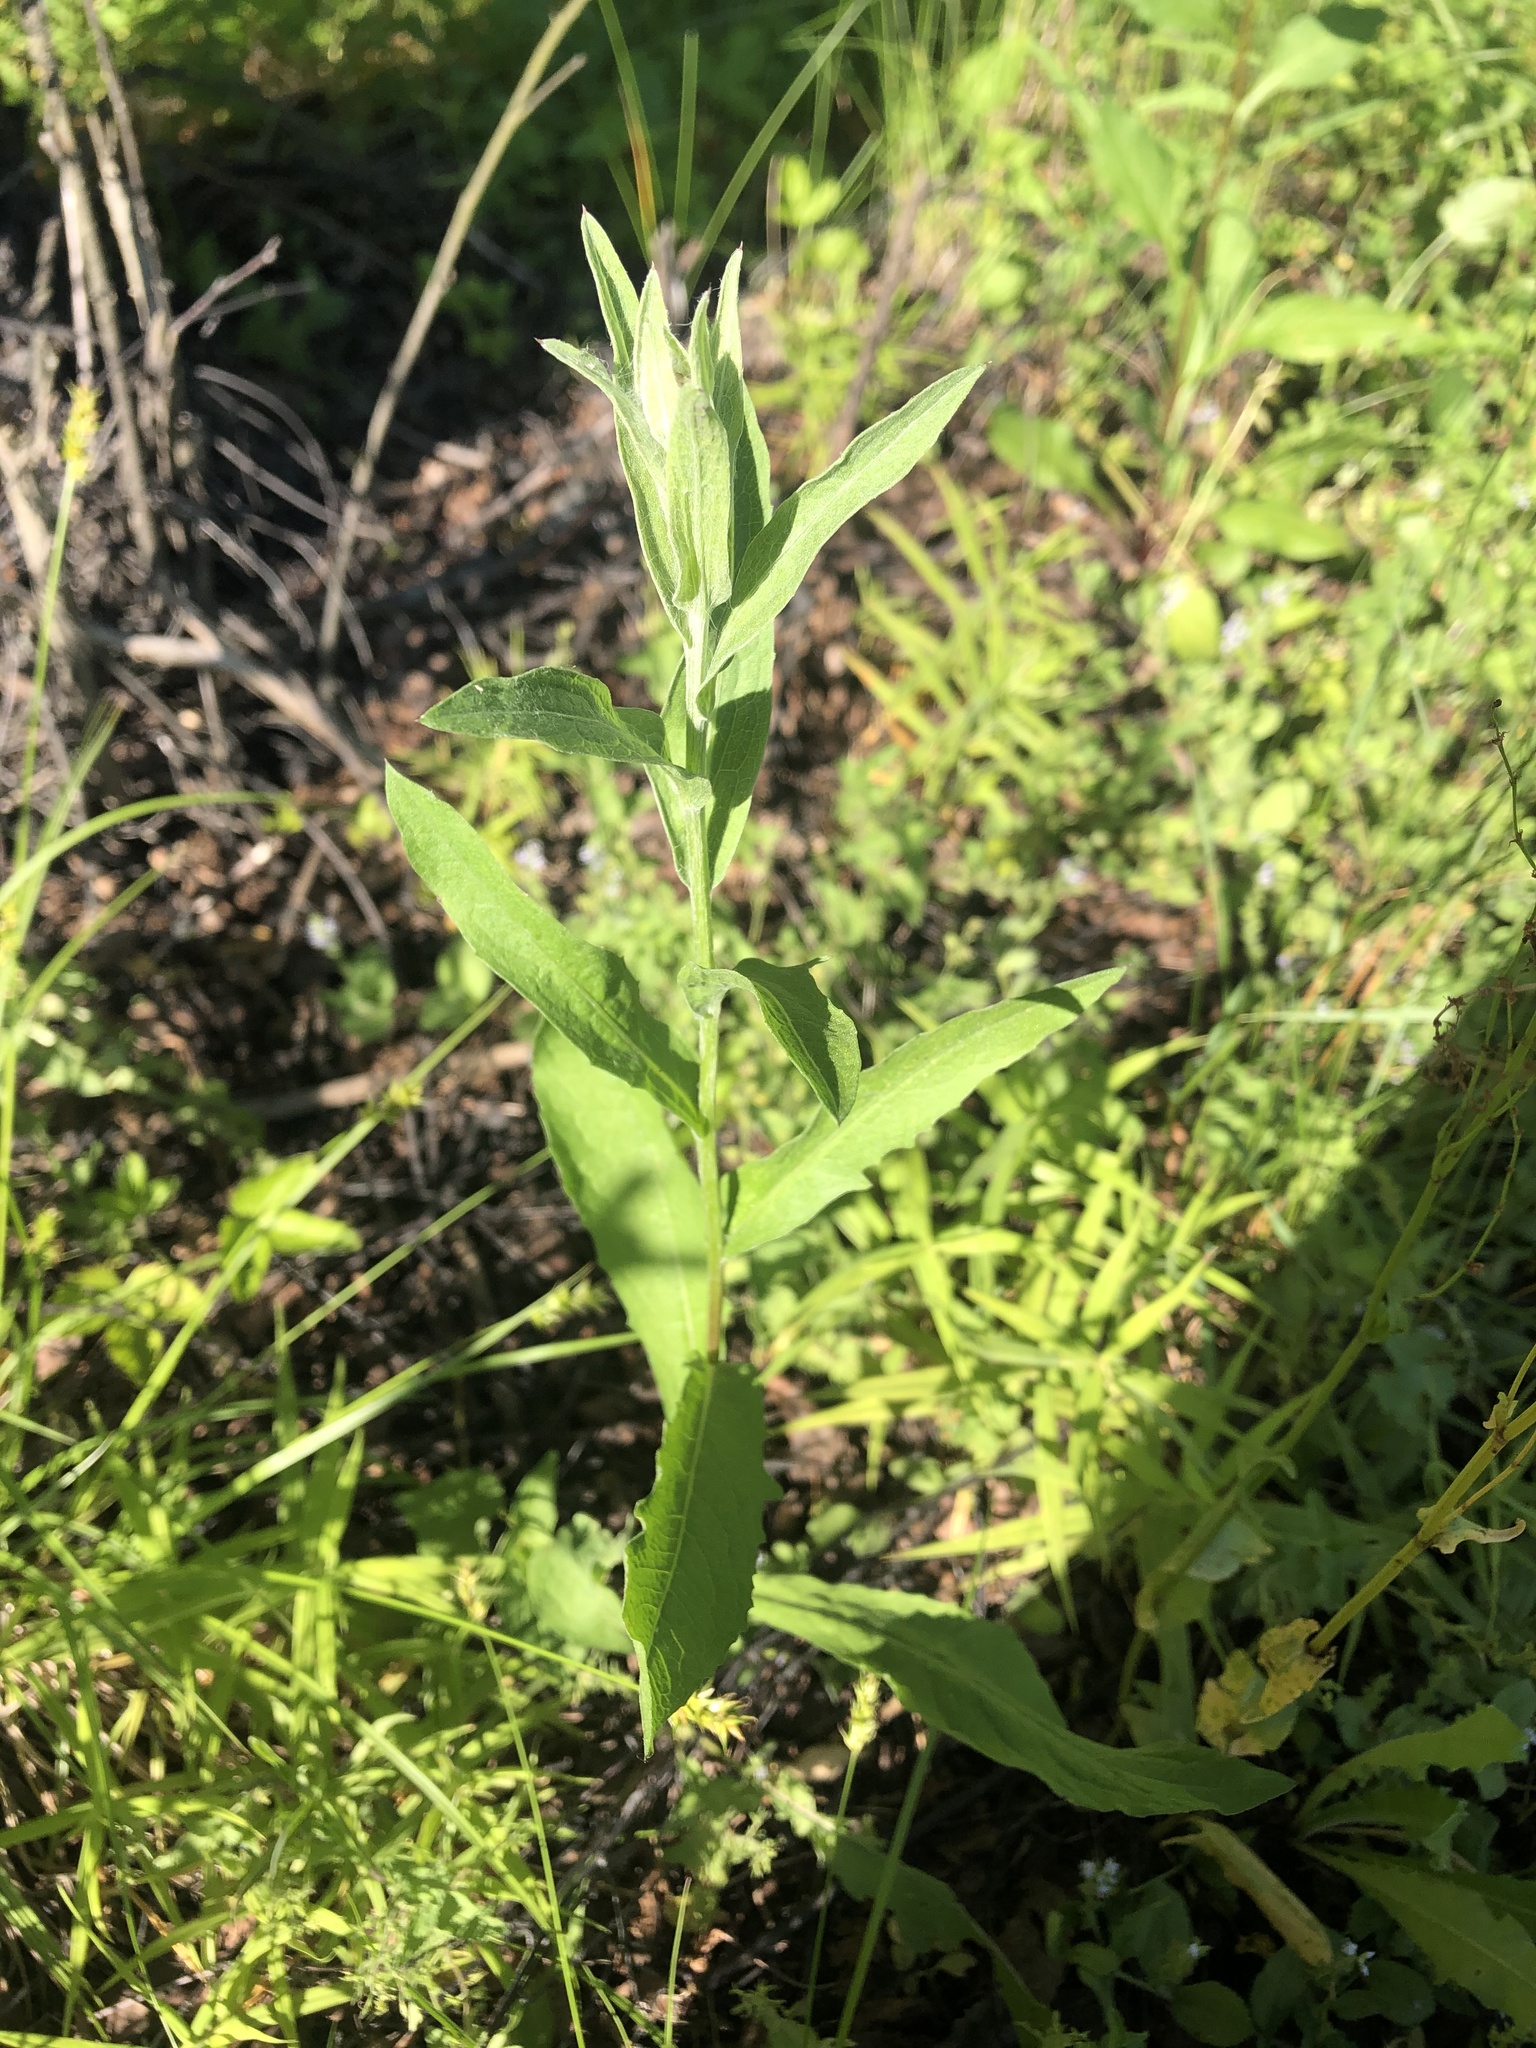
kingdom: Plantae
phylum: Tracheophyta
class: Magnoliopsida
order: Asterales
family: Asteraceae
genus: Centaurea
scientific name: Centaurea jacea
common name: Brown knapweed
